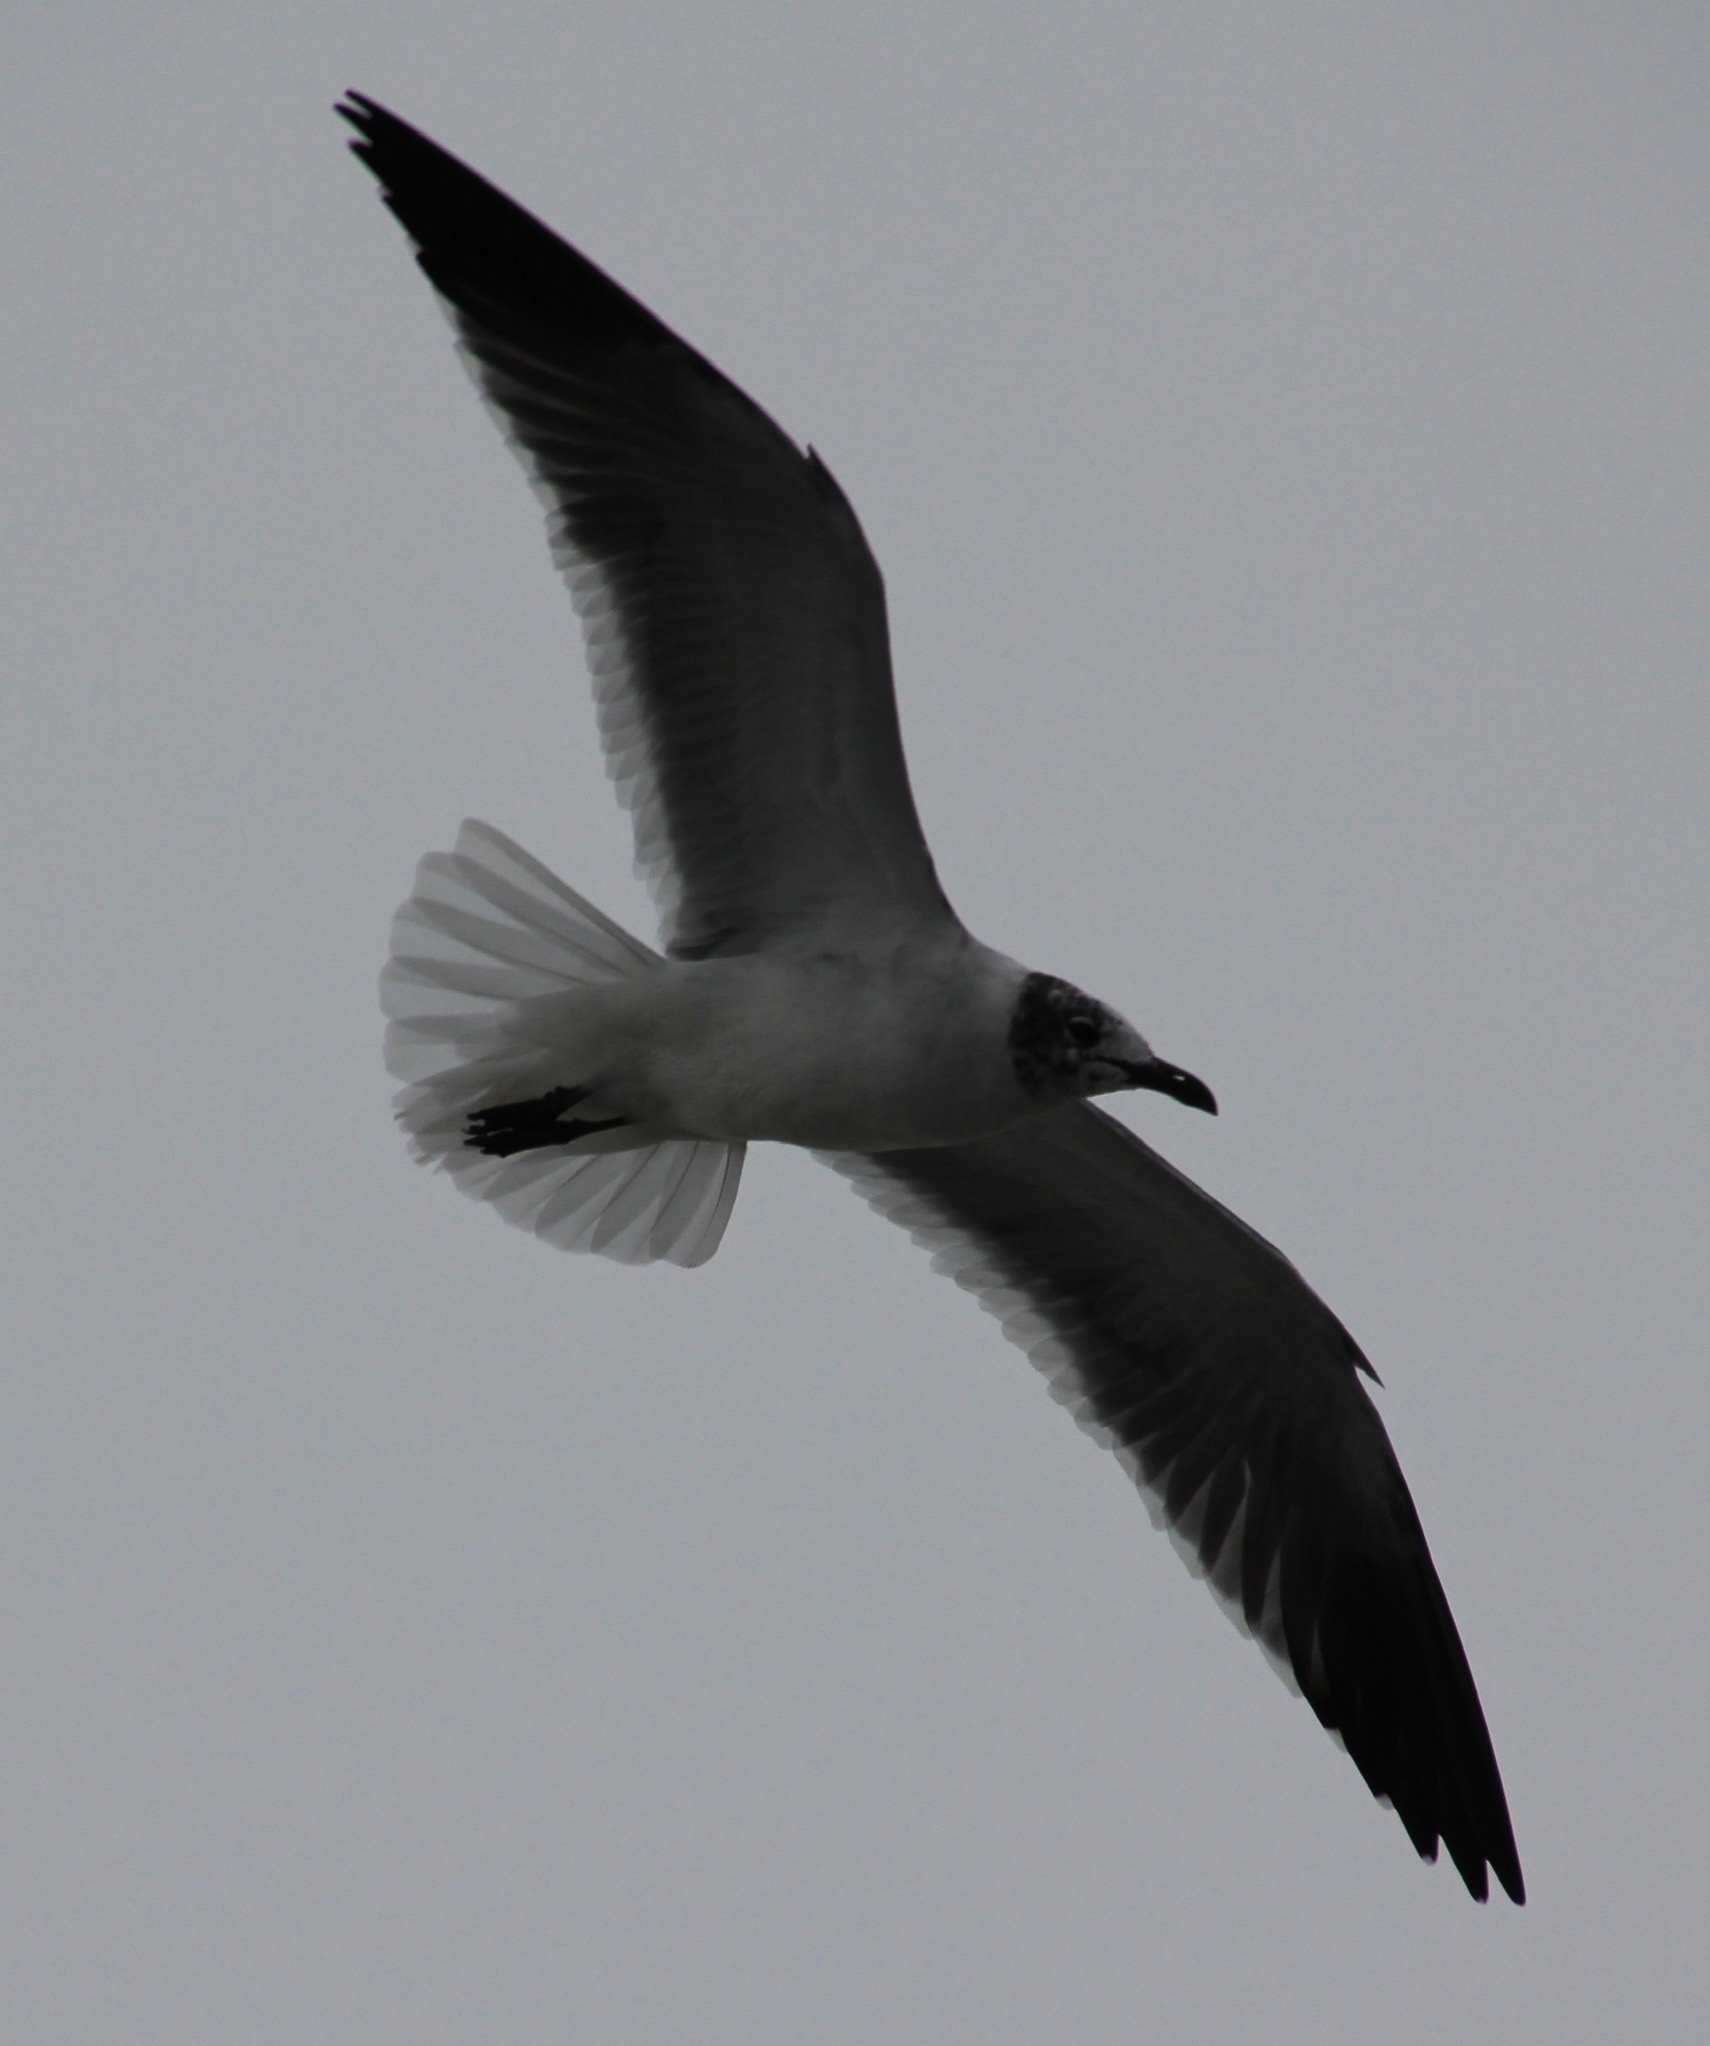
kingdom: Animalia
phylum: Chordata
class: Aves
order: Charadriiformes
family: Laridae
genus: Leucophaeus
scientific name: Leucophaeus atricilla
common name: Laughing gull
